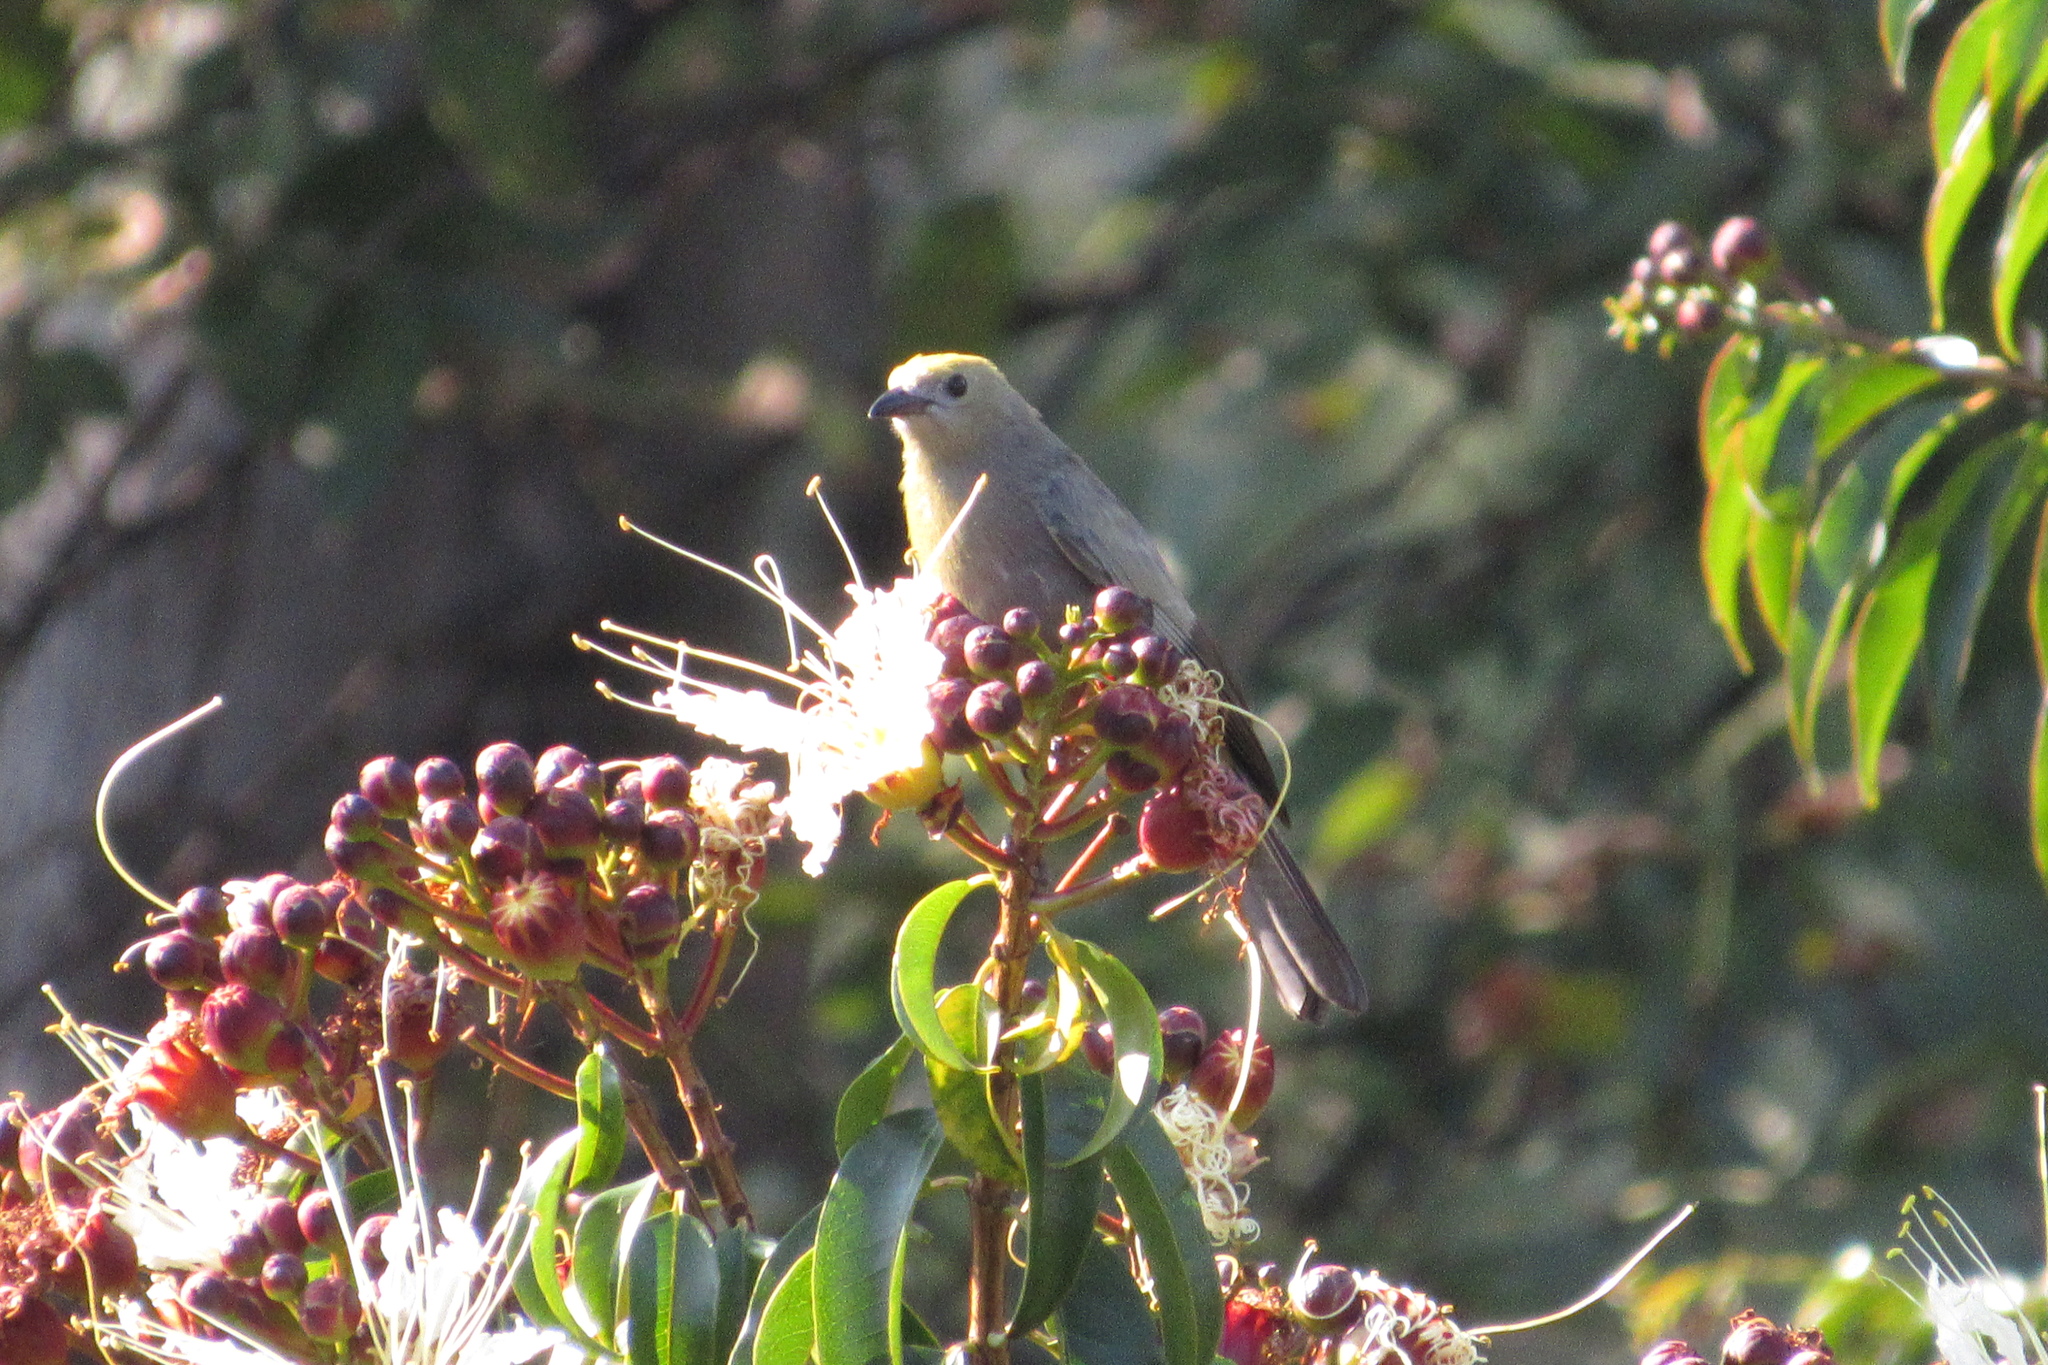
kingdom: Plantae
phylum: Tracheophyta
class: Magnoliopsida
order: Myrtales
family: Lythraceae
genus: Lafoensia
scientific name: Lafoensia acuminata
